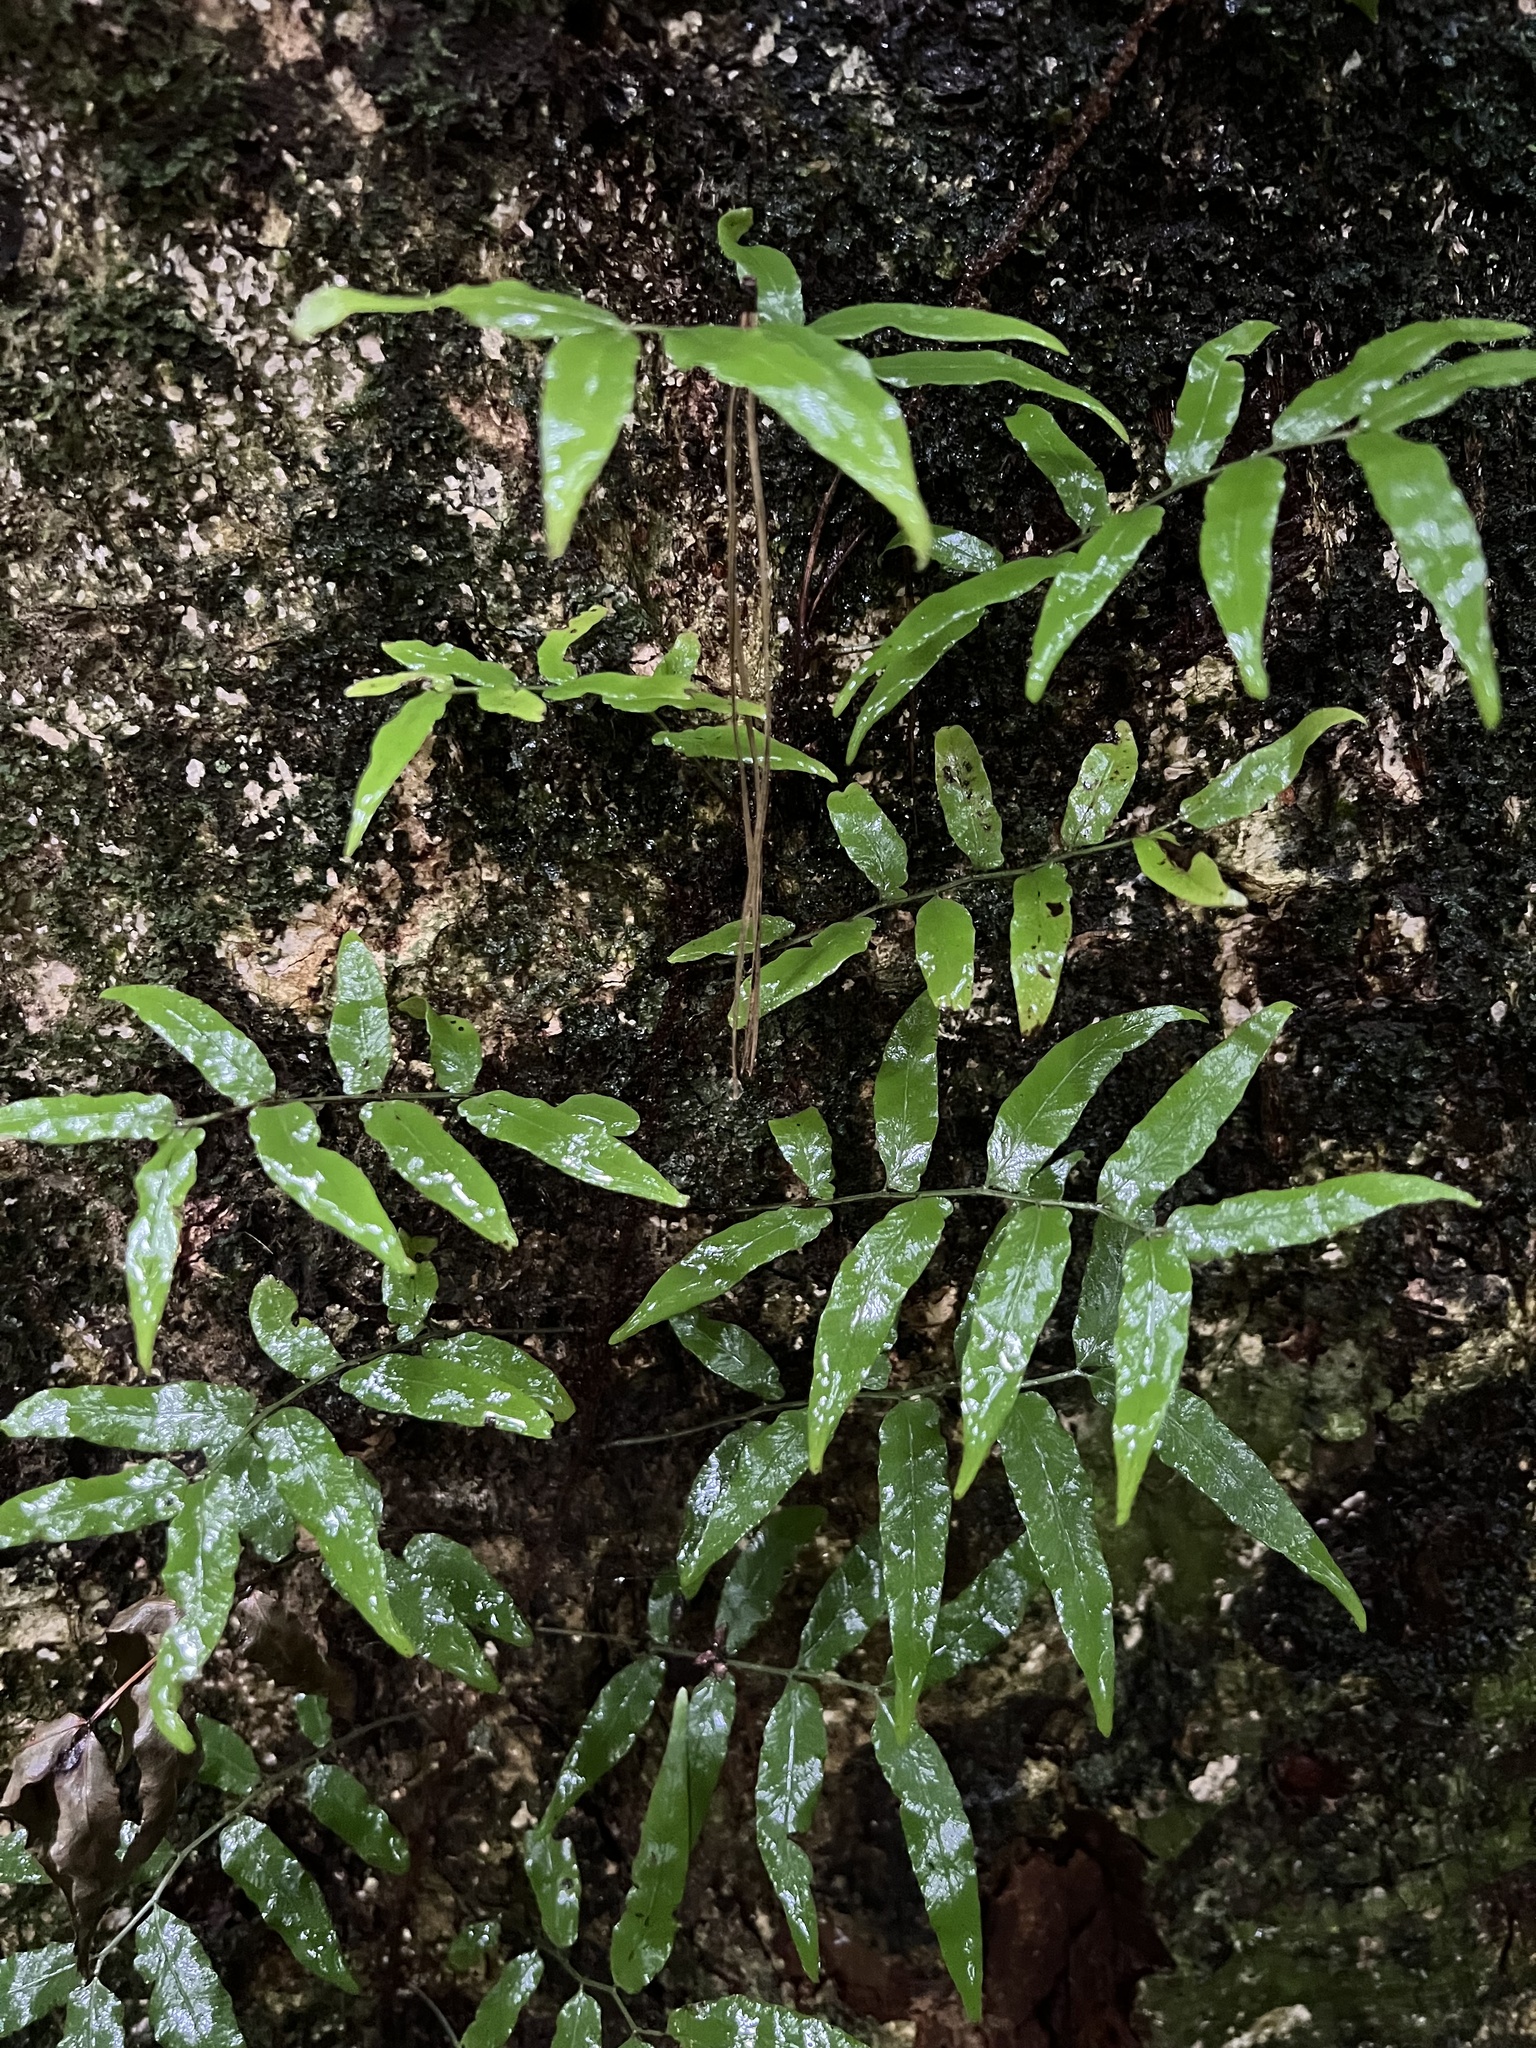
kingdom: Plantae
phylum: Tracheophyta
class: Polypodiopsida
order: Polypodiales
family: Tectariaceae
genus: Arthropteris
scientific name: Arthropteris tenella
